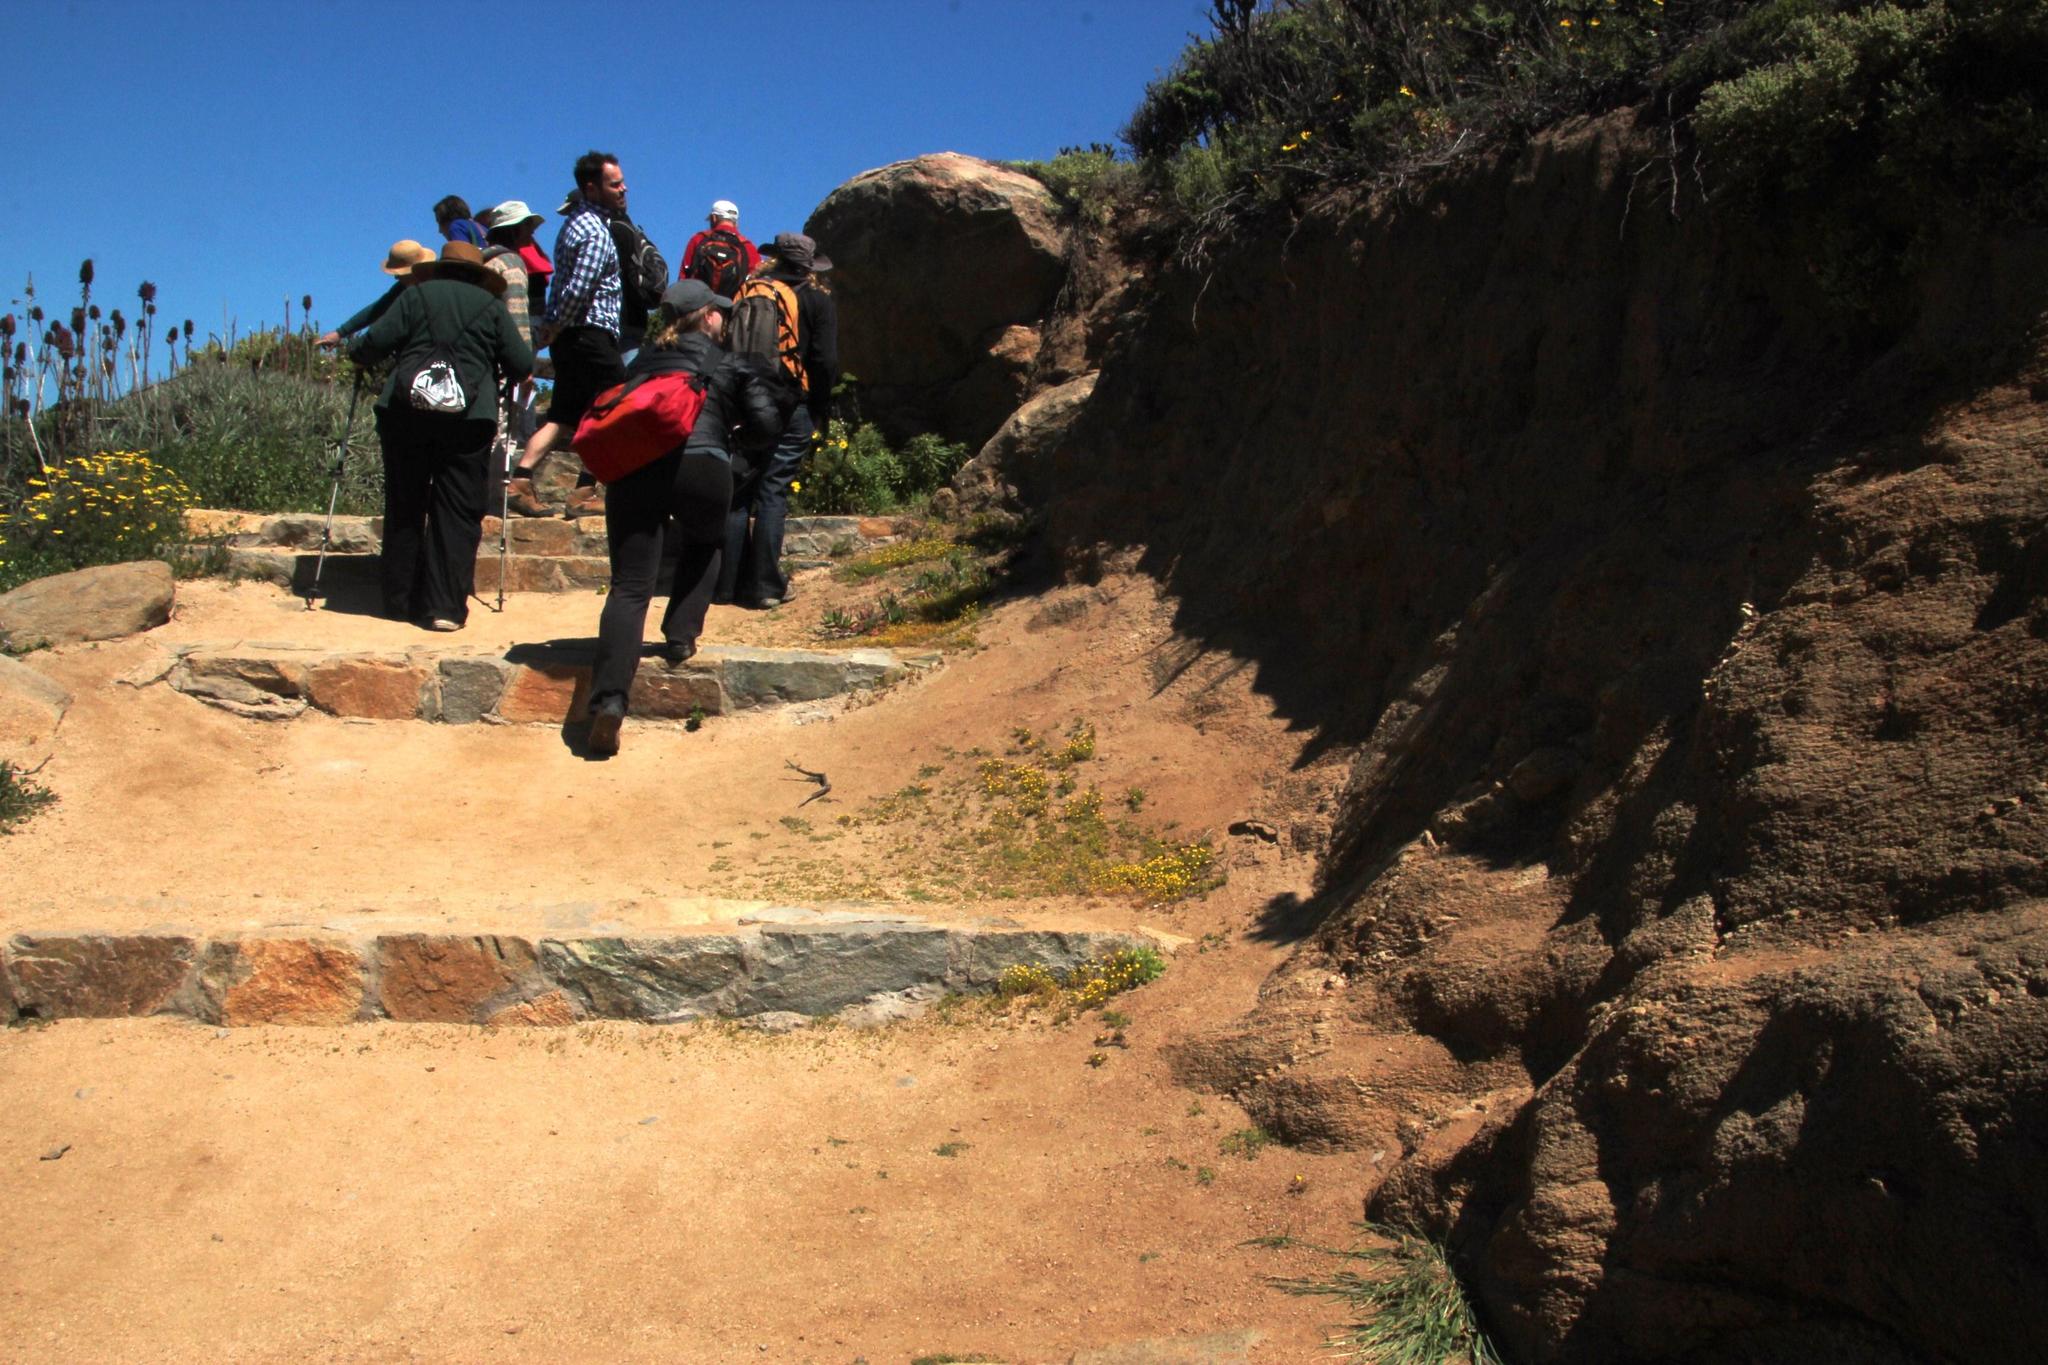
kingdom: Plantae
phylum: Tracheophyta
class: Magnoliopsida
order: Asterales
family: Asteraceae
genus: Cotula
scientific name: Cotula coronopifolia
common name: Buttonweed
